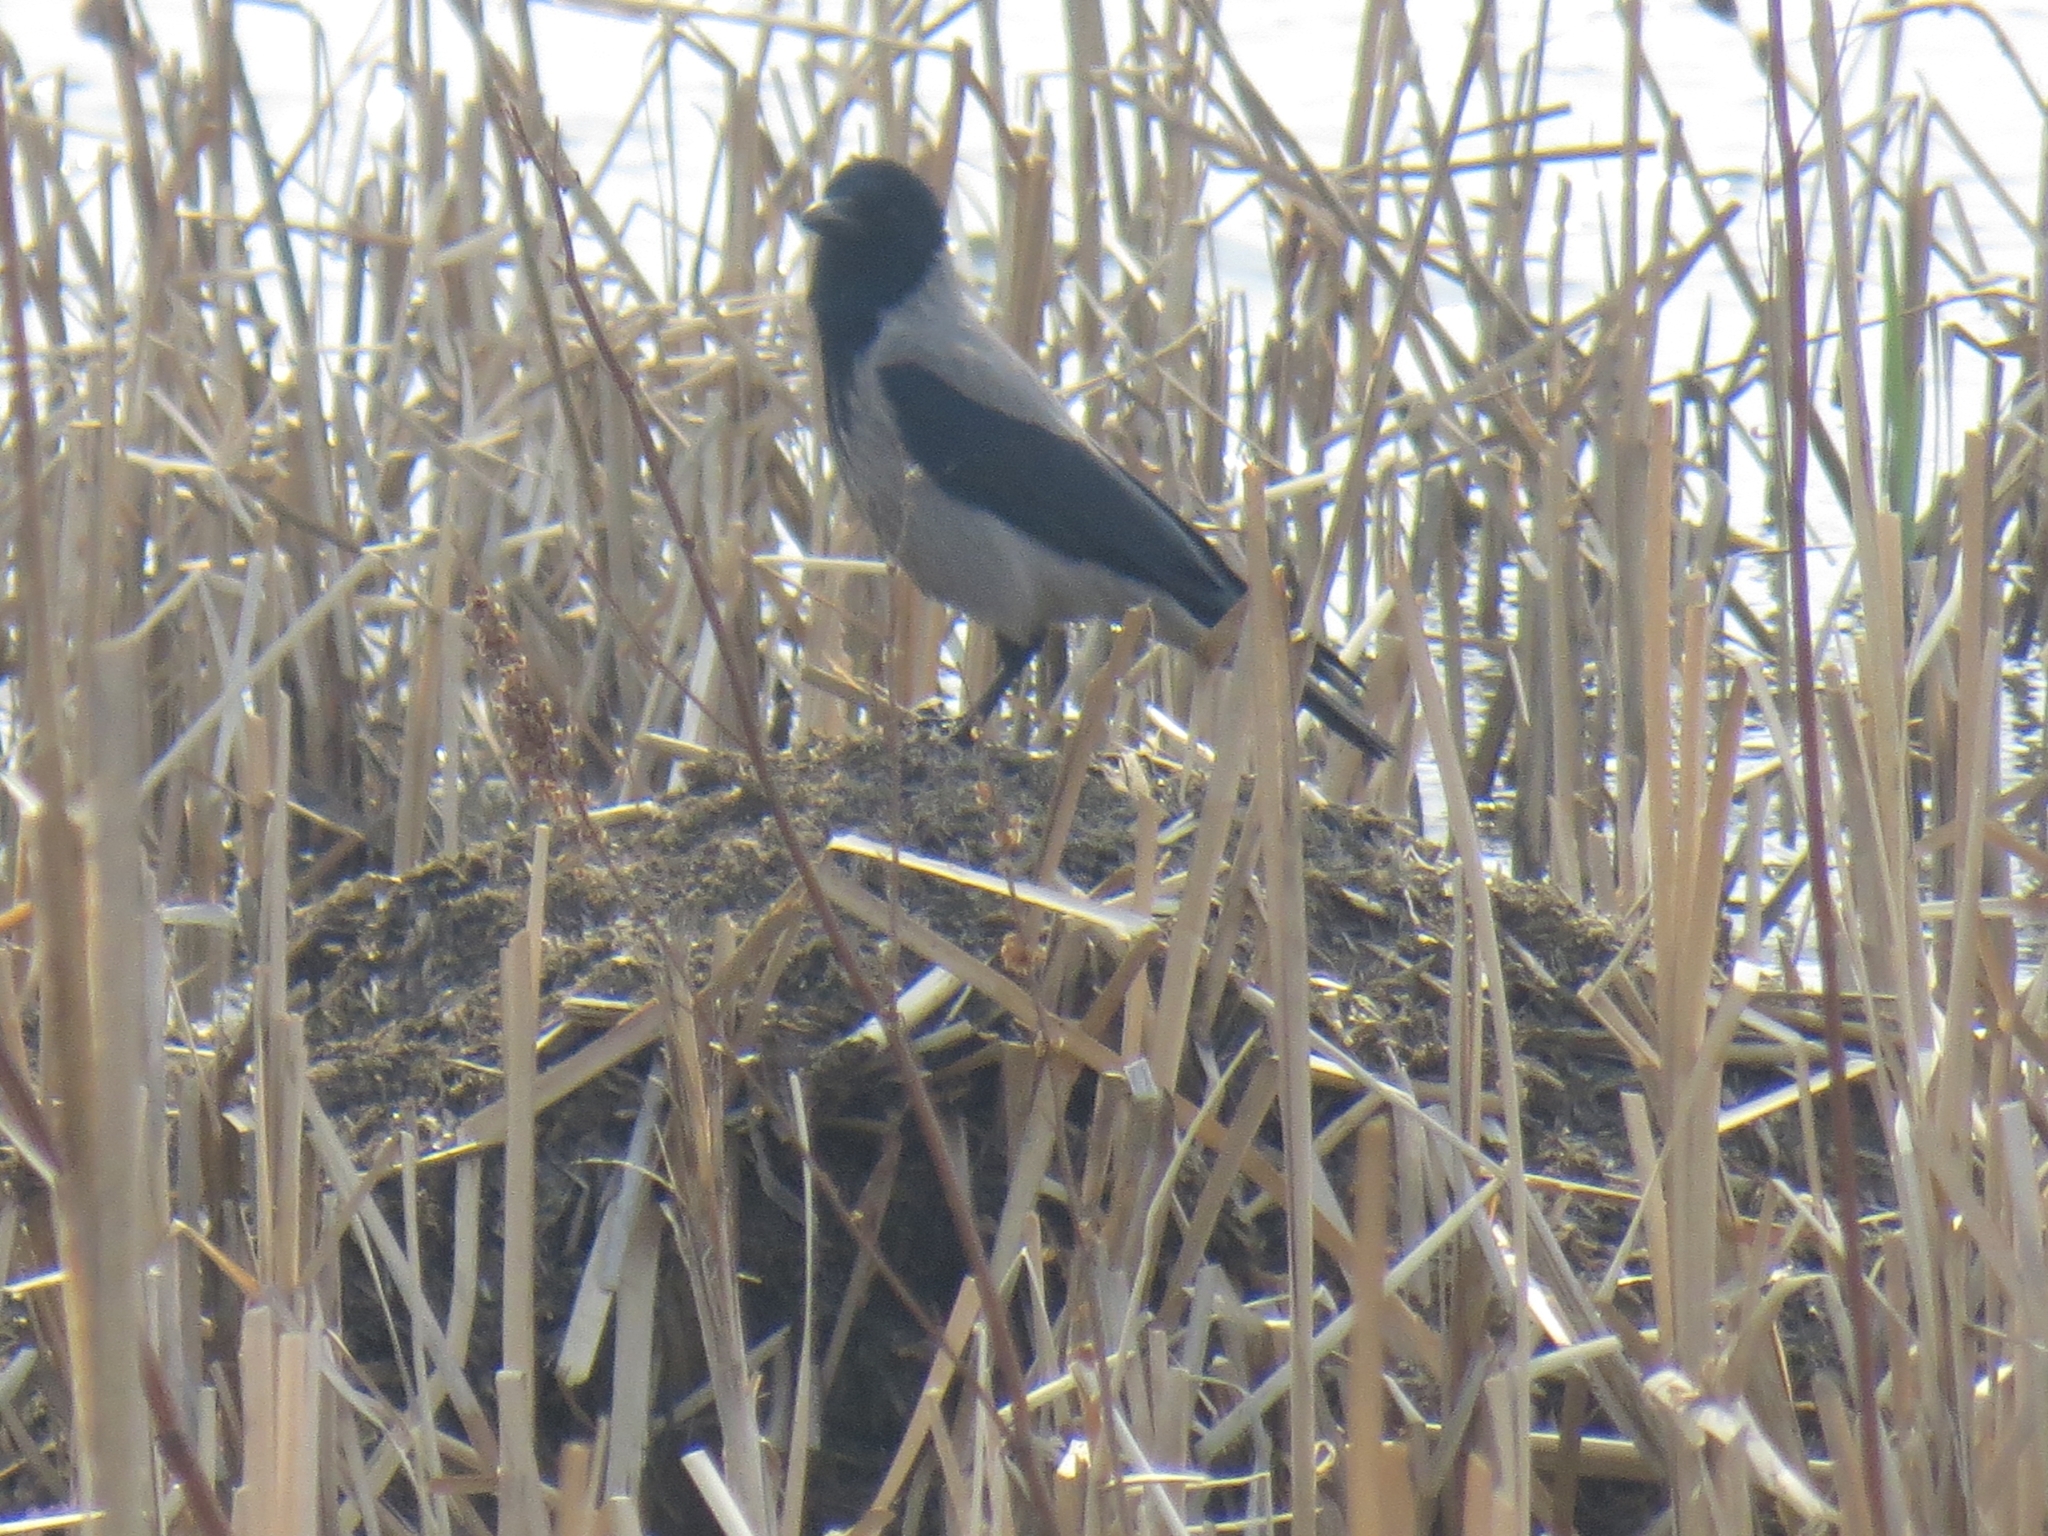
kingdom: Animalia
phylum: Chordata
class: Aves
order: Passeriformes
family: Corvidae
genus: Corvus
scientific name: Corvus cornix
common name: Hooded crow
